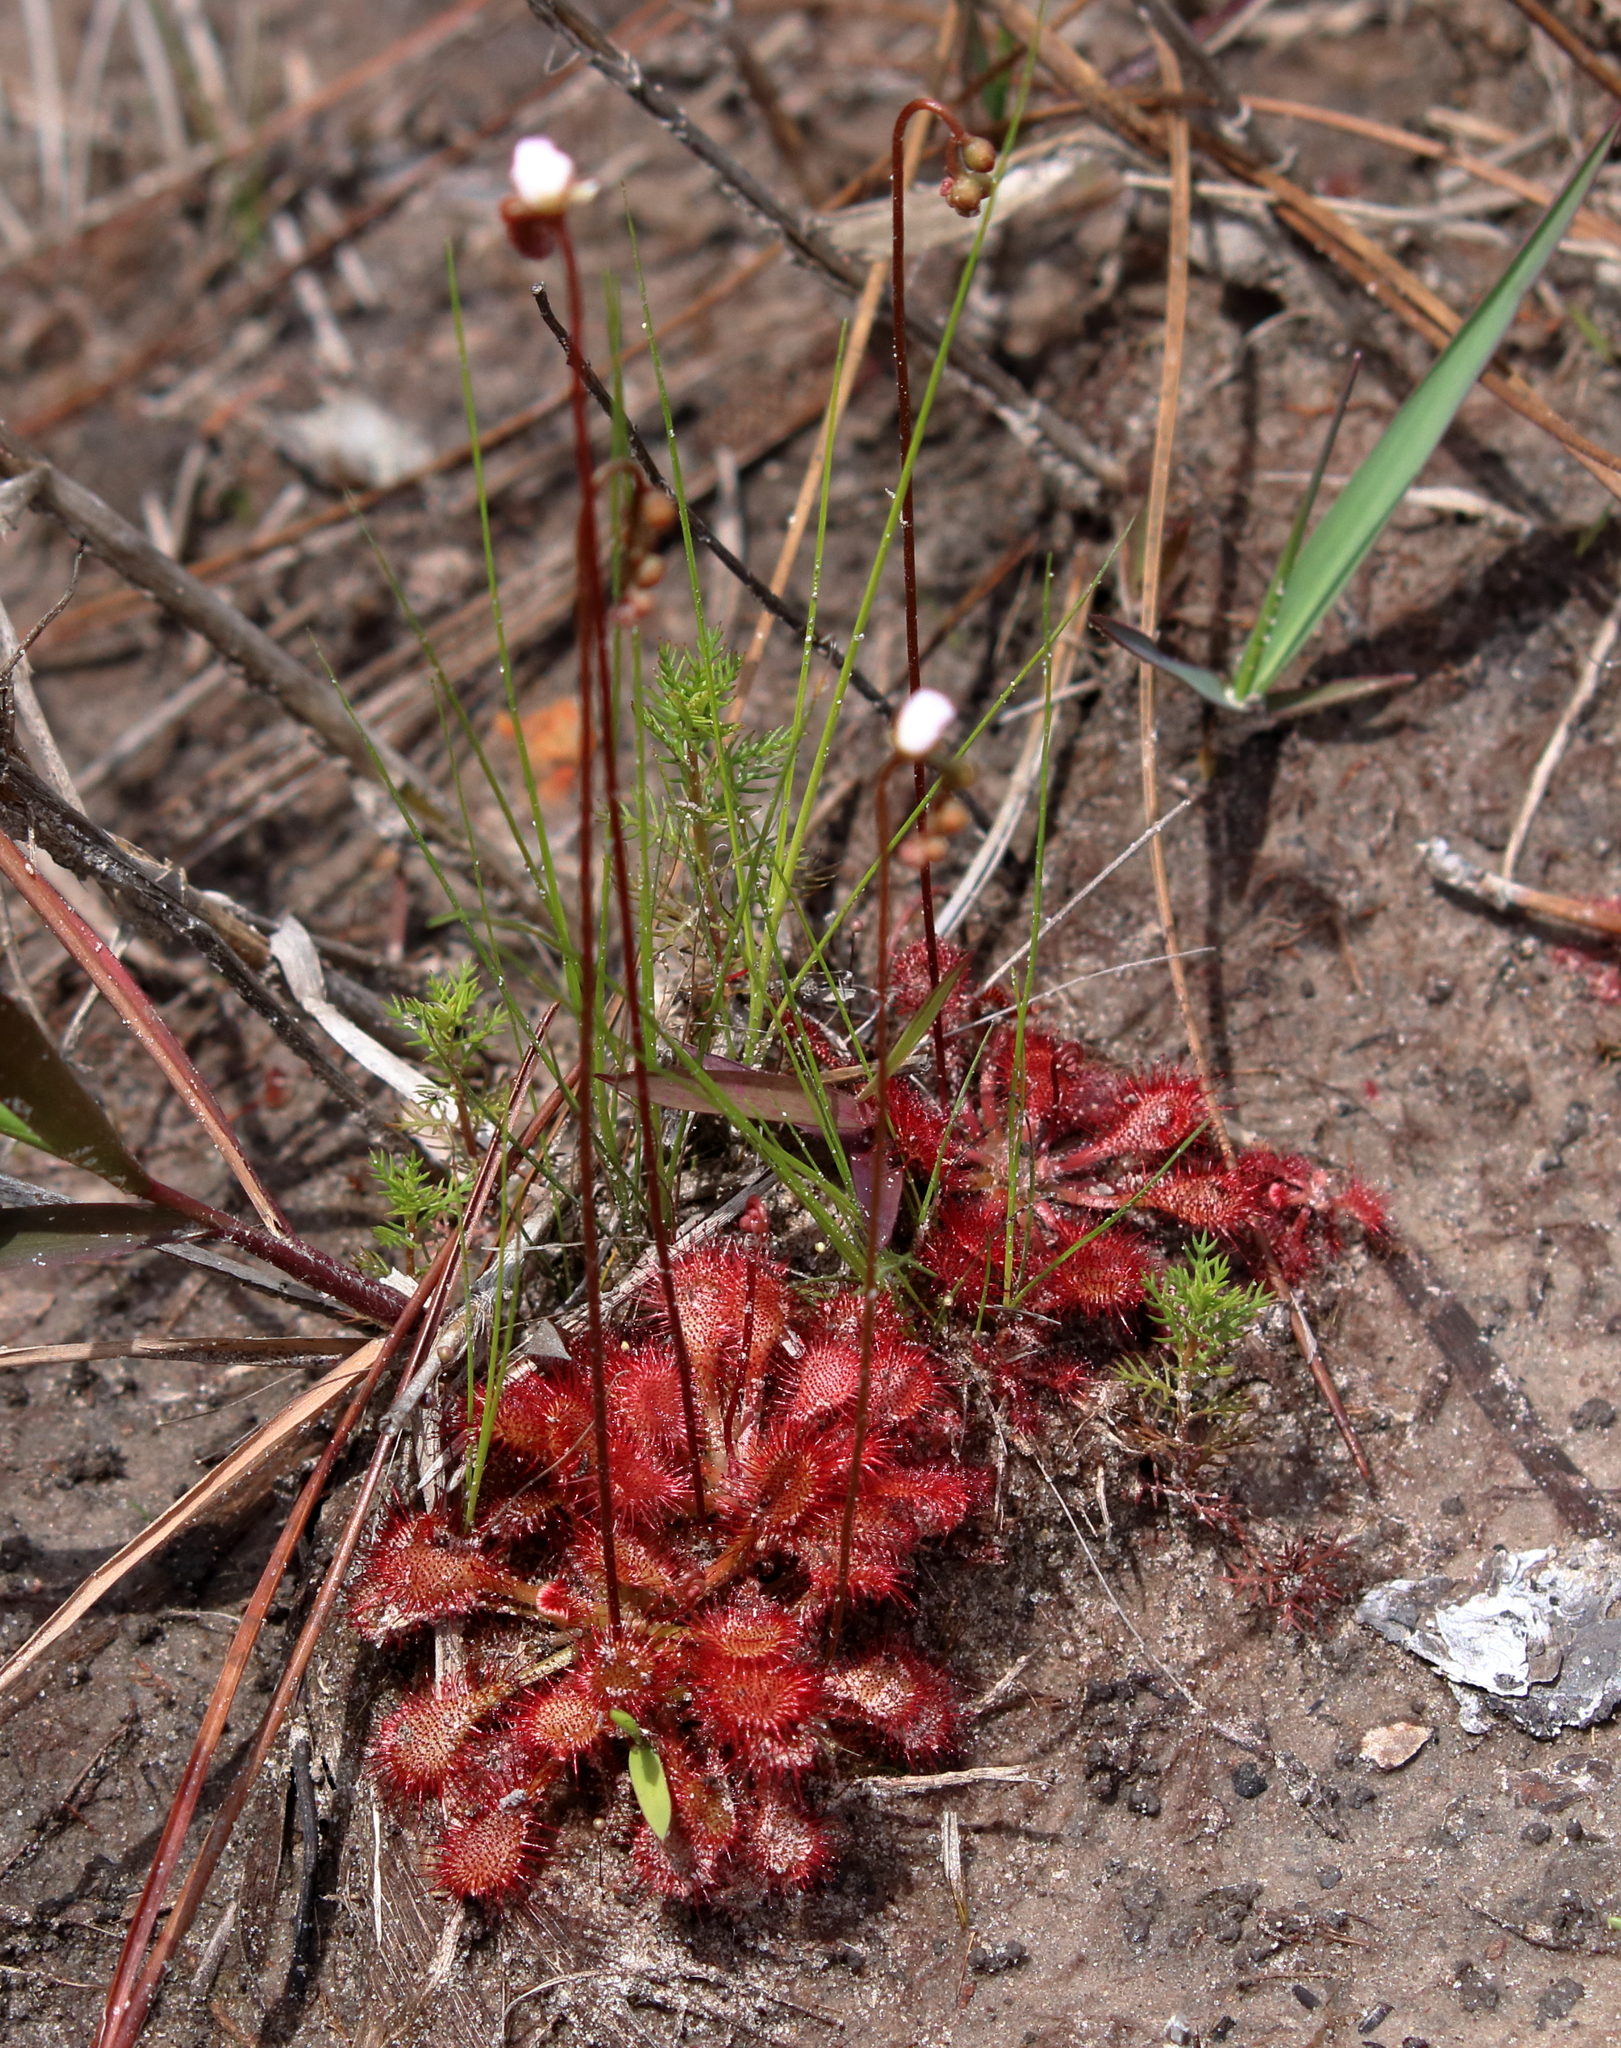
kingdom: Plantae
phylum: Tracheophyta
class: Magnoliopsida
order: Caryophyllales
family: Droseraceae
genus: Drosera
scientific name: Drosera capillaris
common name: Pink sundew
